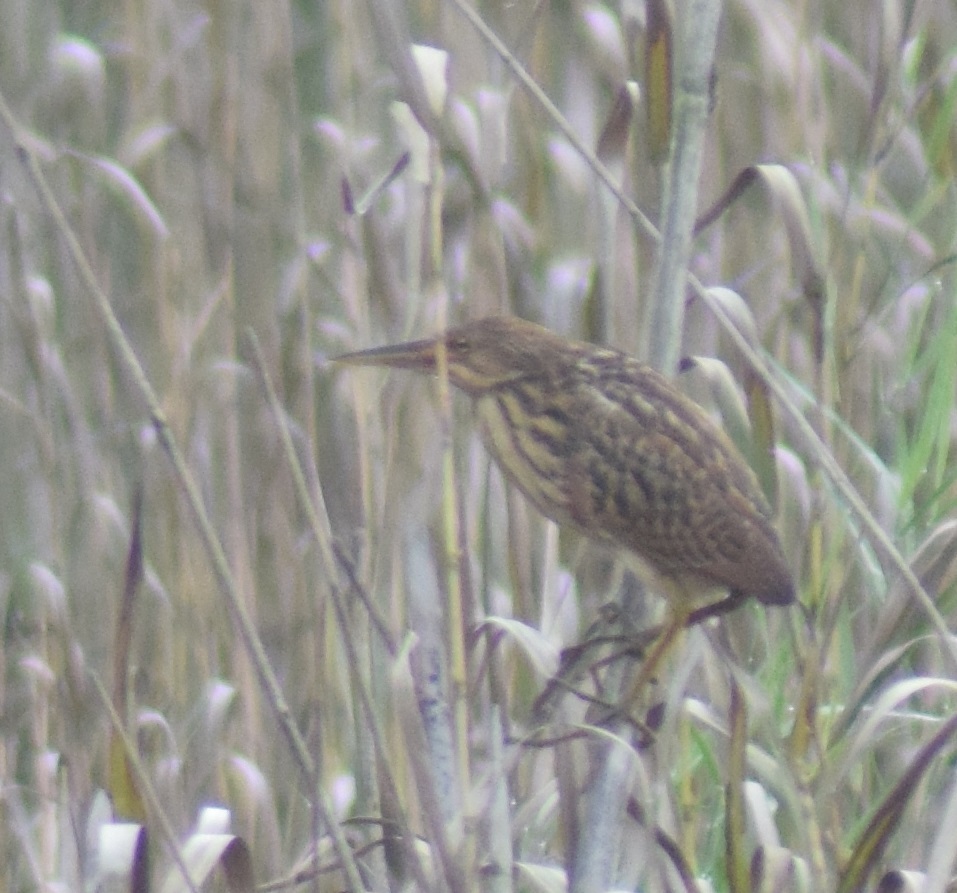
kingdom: Animalia
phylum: Chordata
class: Aves
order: Pelecaniformes
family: Ardeidae
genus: Ixobrychus
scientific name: Ixobrychus cinnamomeus
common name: Cinnamon bittern
